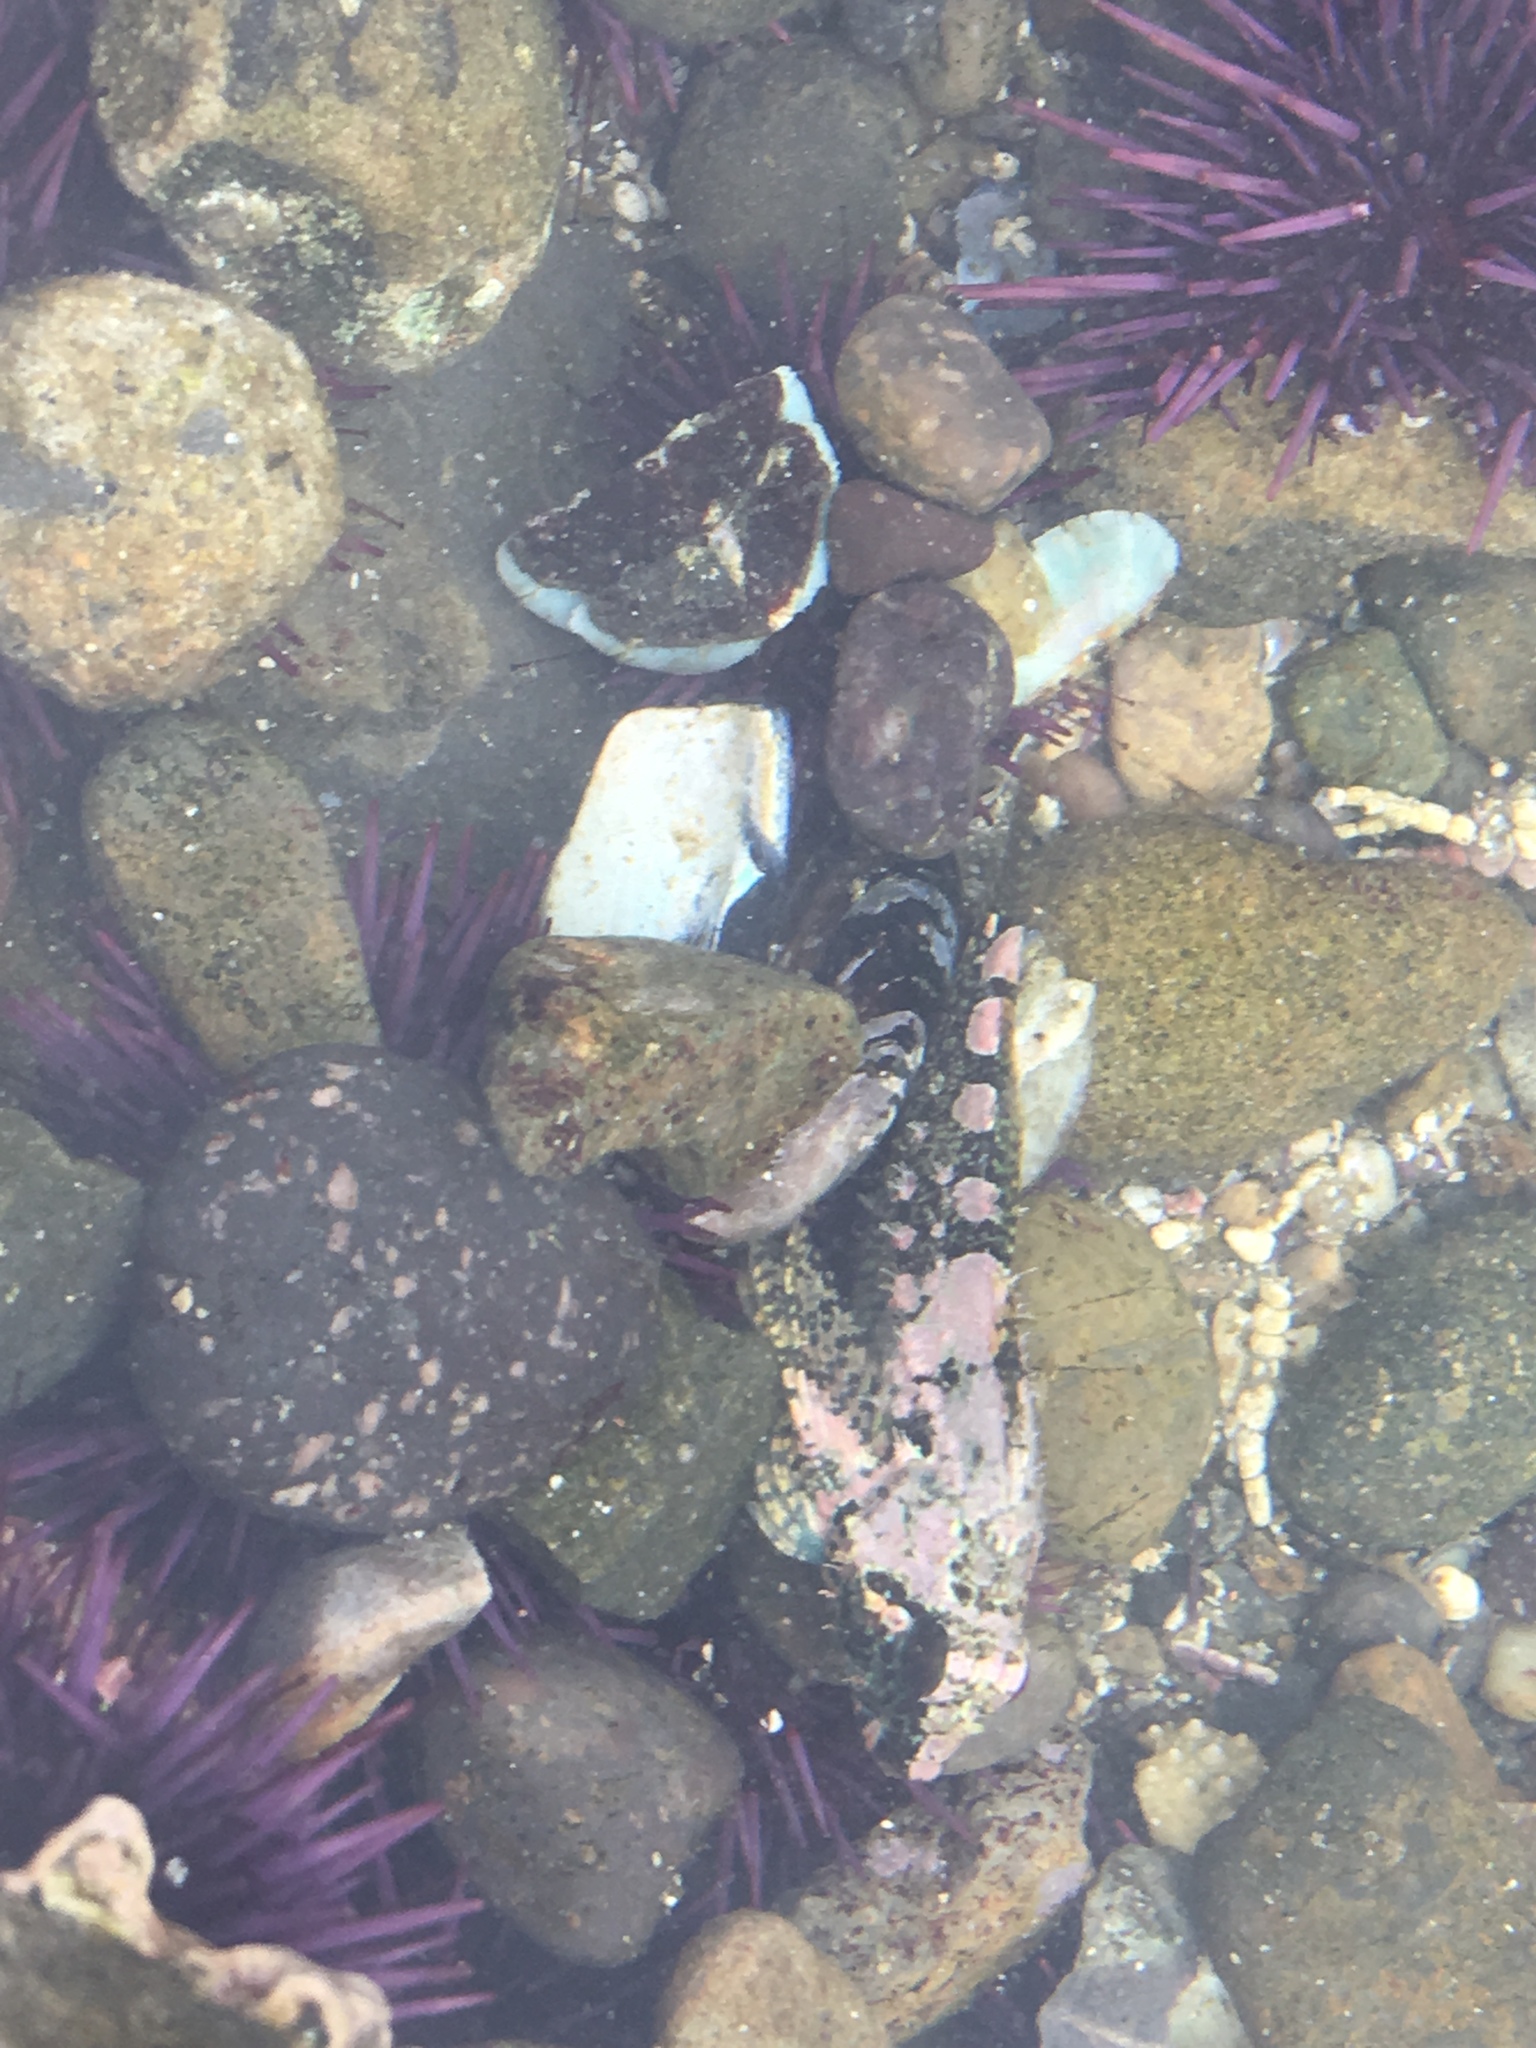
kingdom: Animalia
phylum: Chordata
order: Scorpaeniformes
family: Cottidae
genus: Oligocottus
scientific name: Oligocottus rubellio
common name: Rosy sculpin
